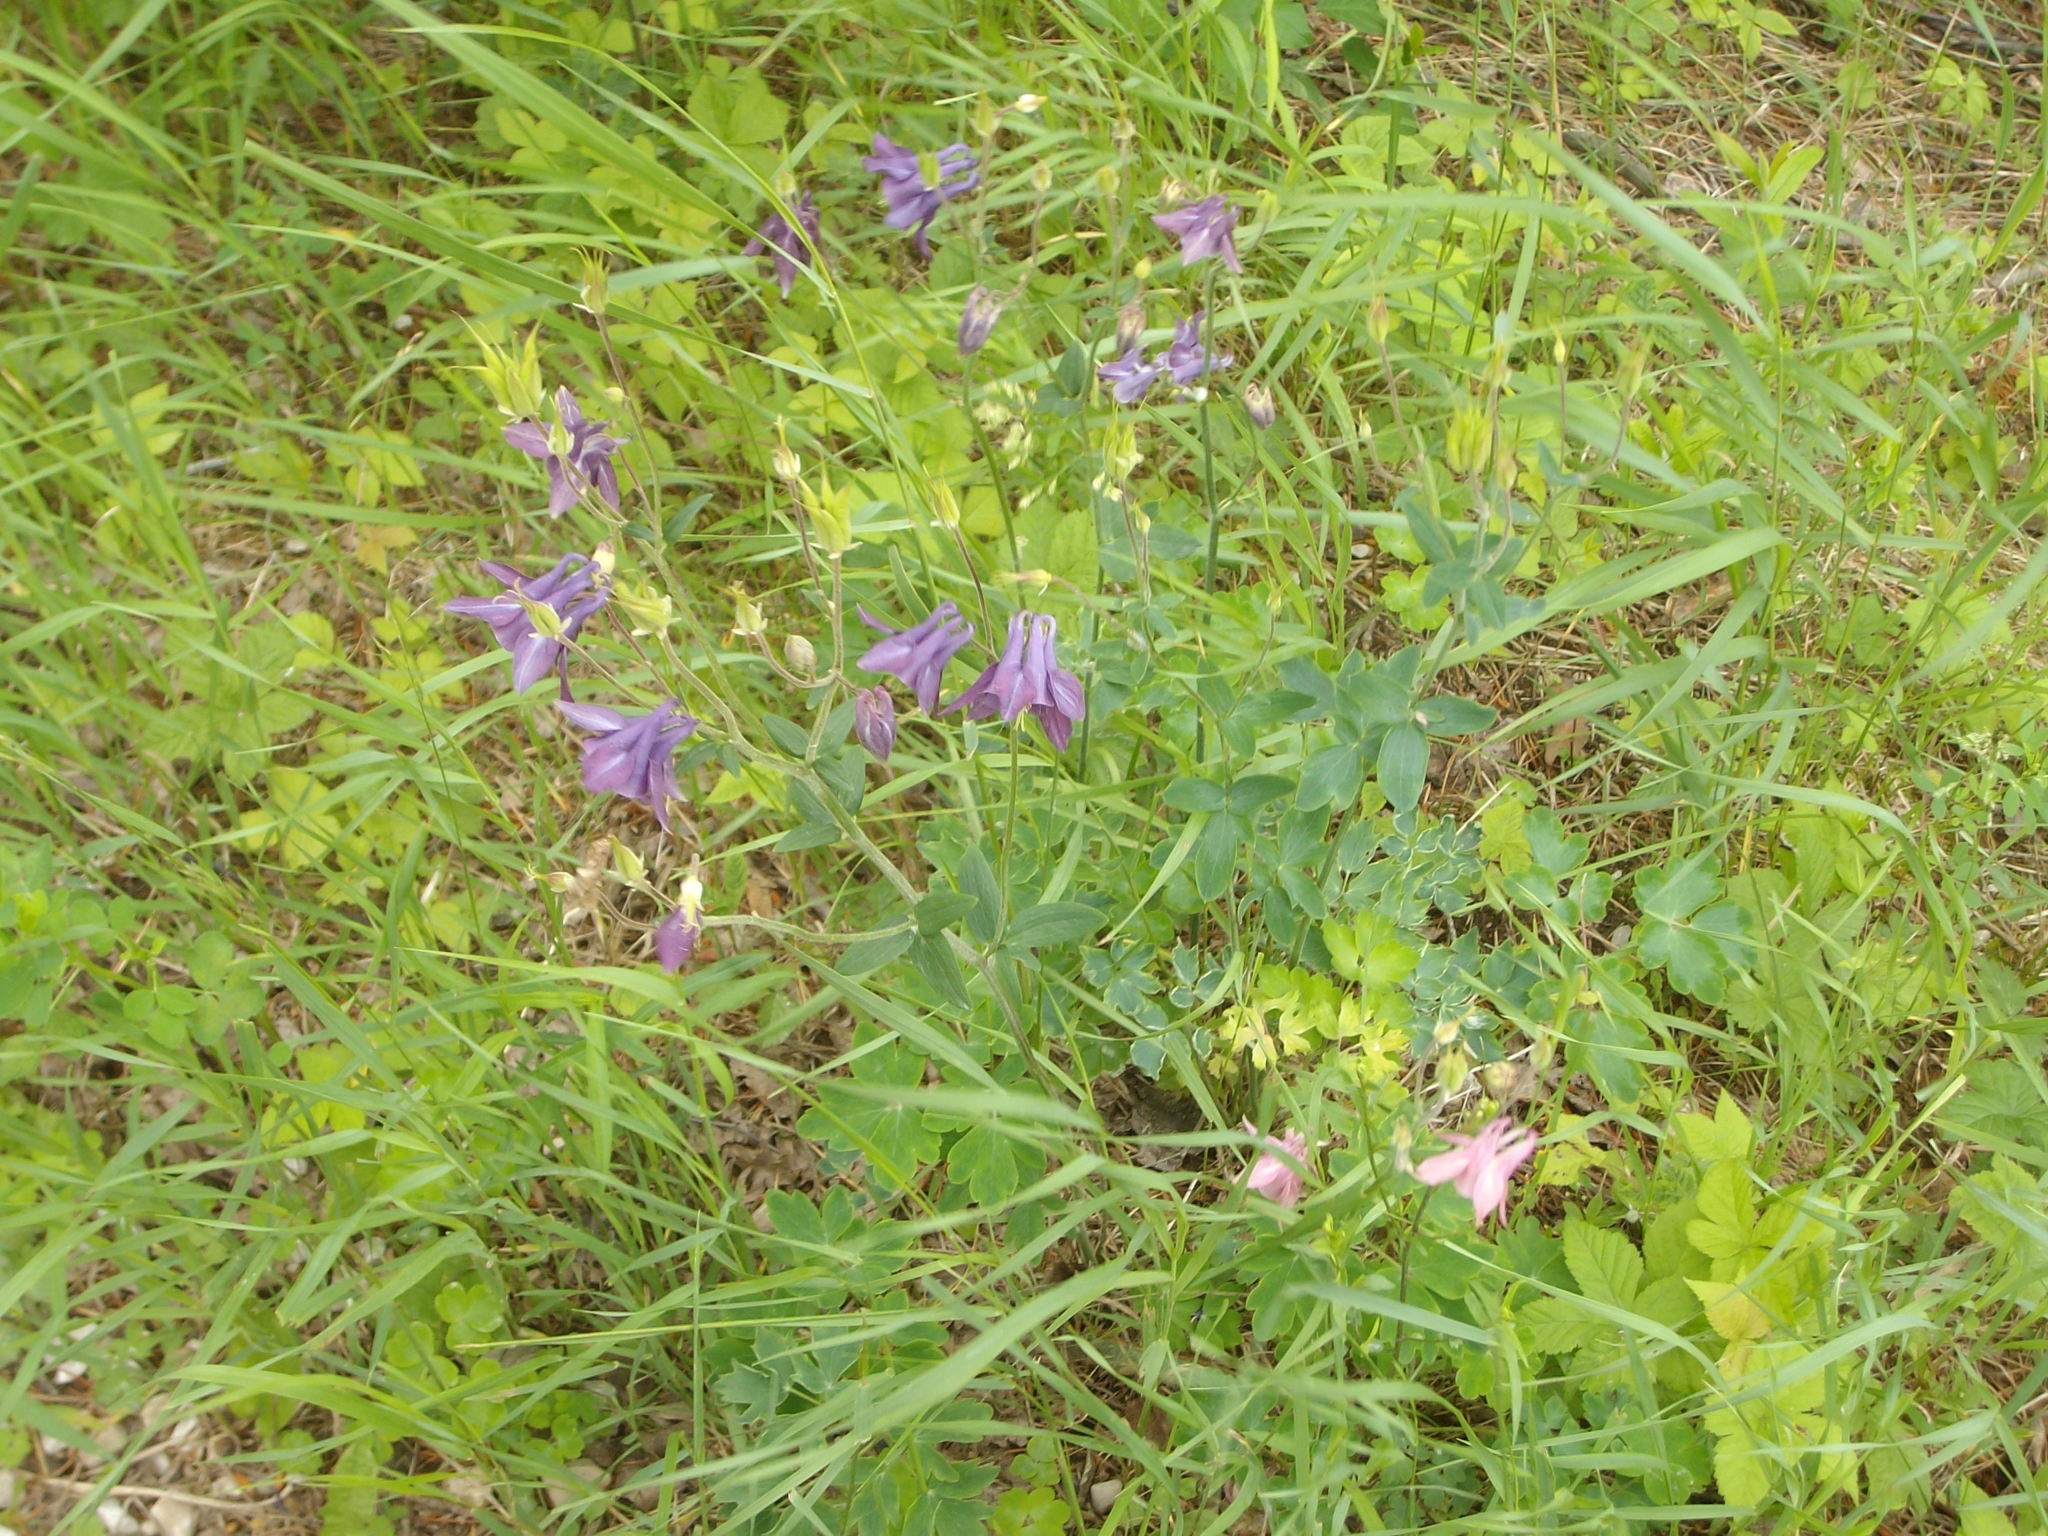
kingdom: Plantae
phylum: Tracheophyta
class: Magnoliopsida
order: Ranunculales
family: Ranunculaceae
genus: Aquilegia
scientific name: Aquilegia vulgaris
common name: Columbine
